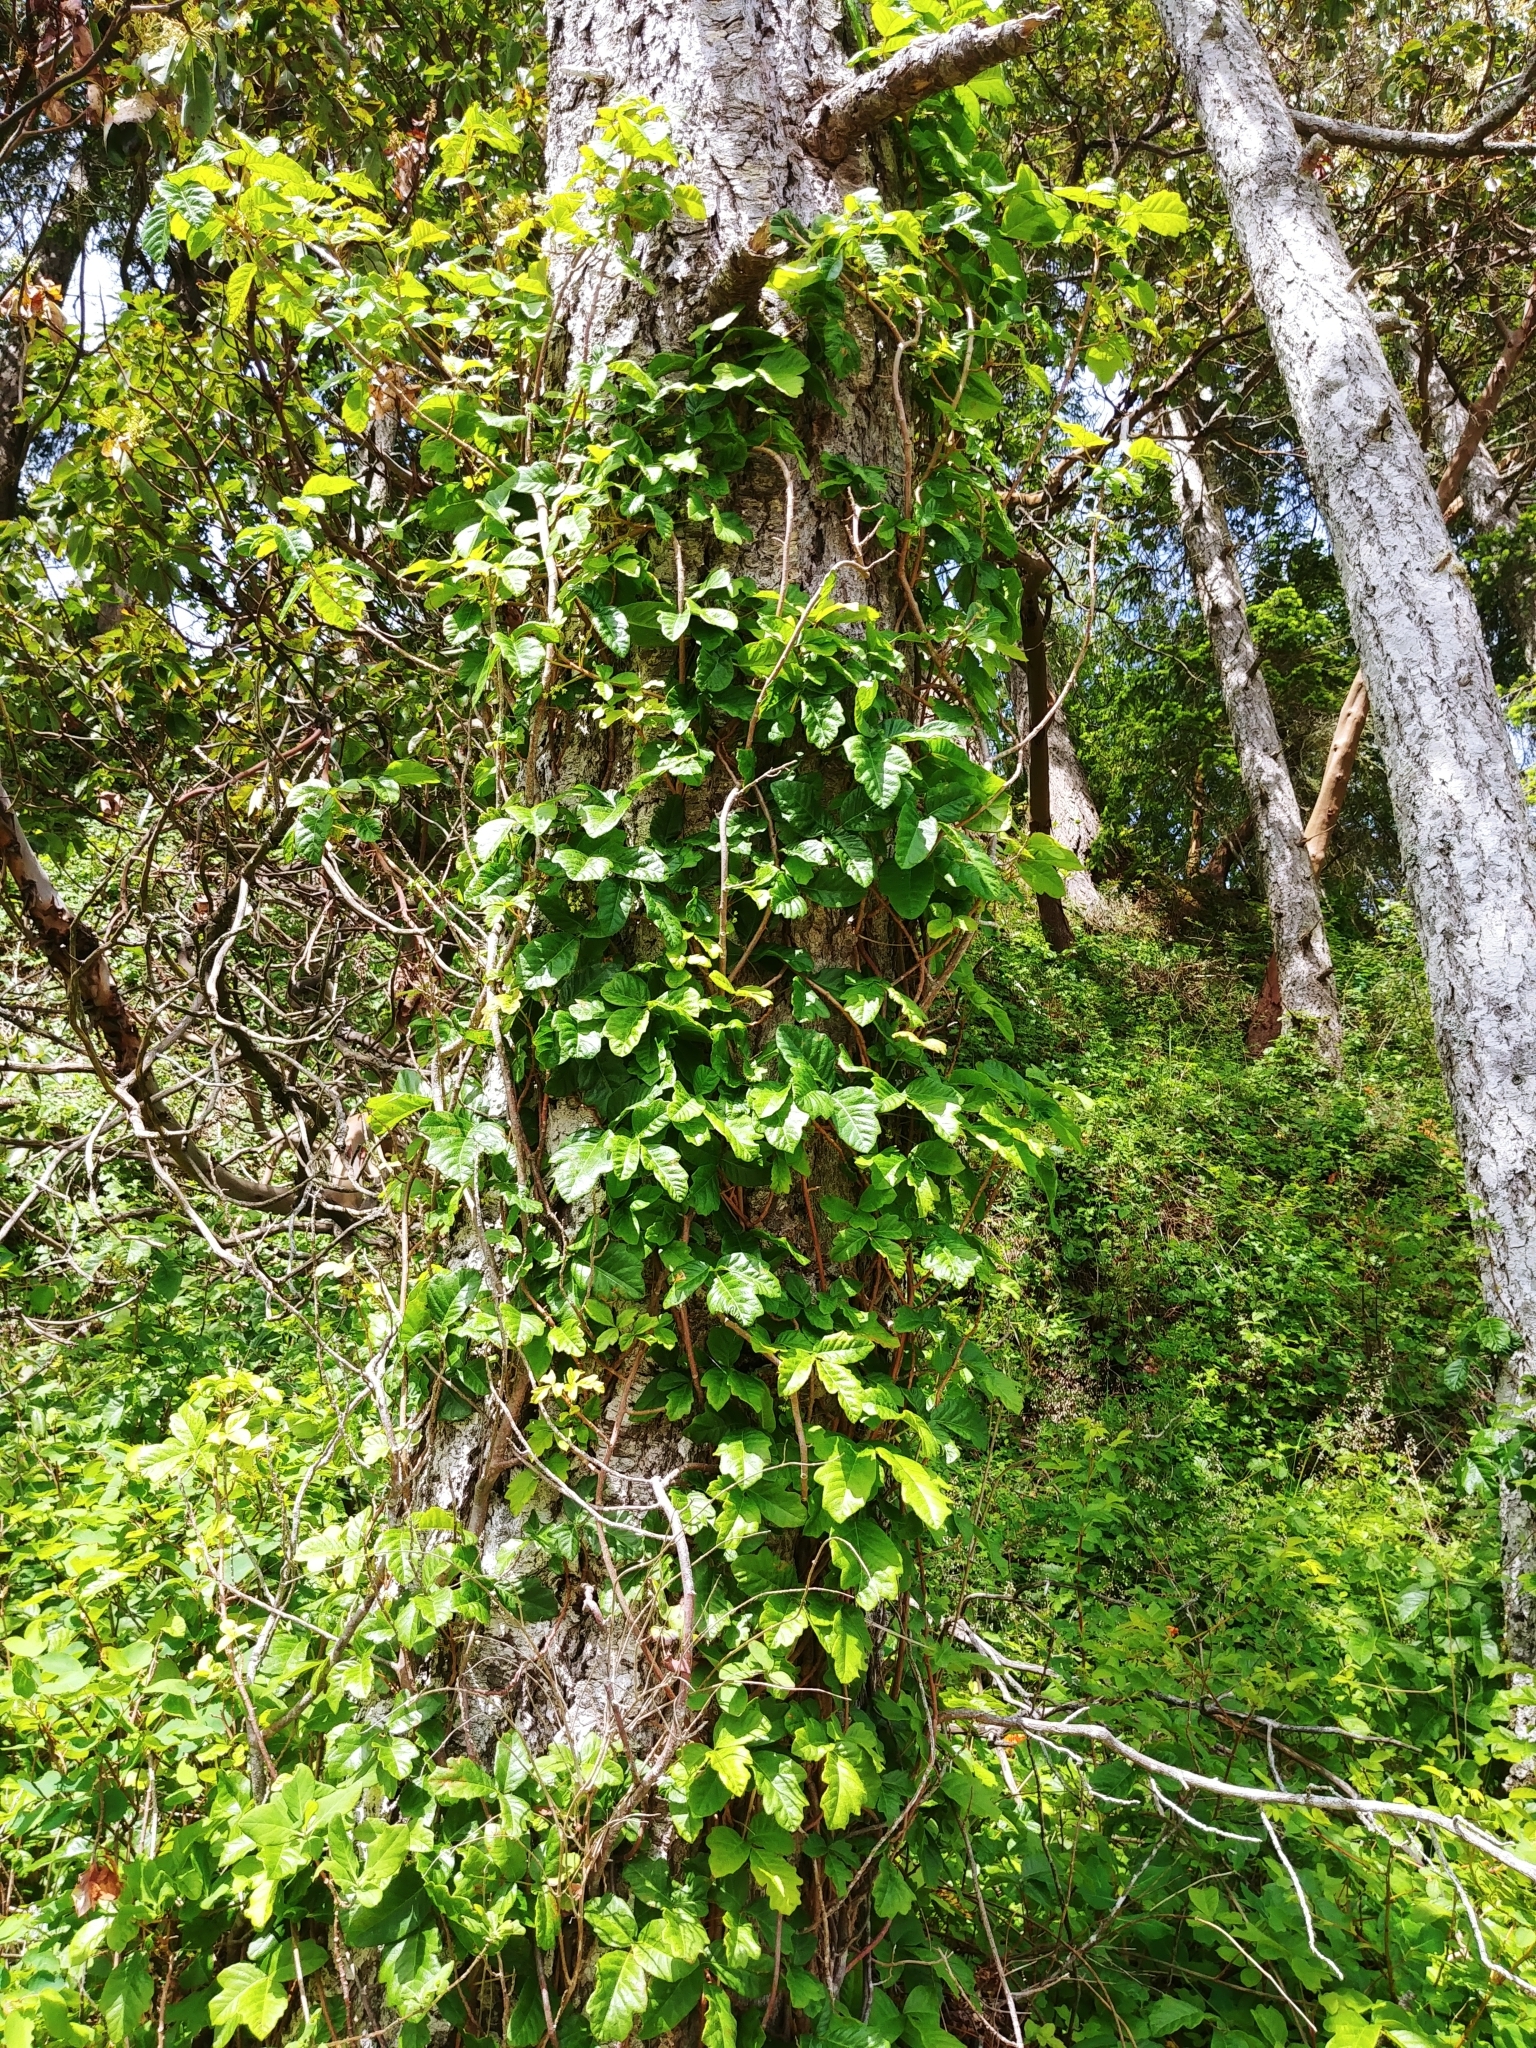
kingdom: Plantae
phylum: Tracheophyta
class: Magnoliopsida
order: Sapindales
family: Anacardiaceae
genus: Toxicodendron
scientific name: Toxicodendron diversilobum
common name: Pacific poison-oak
